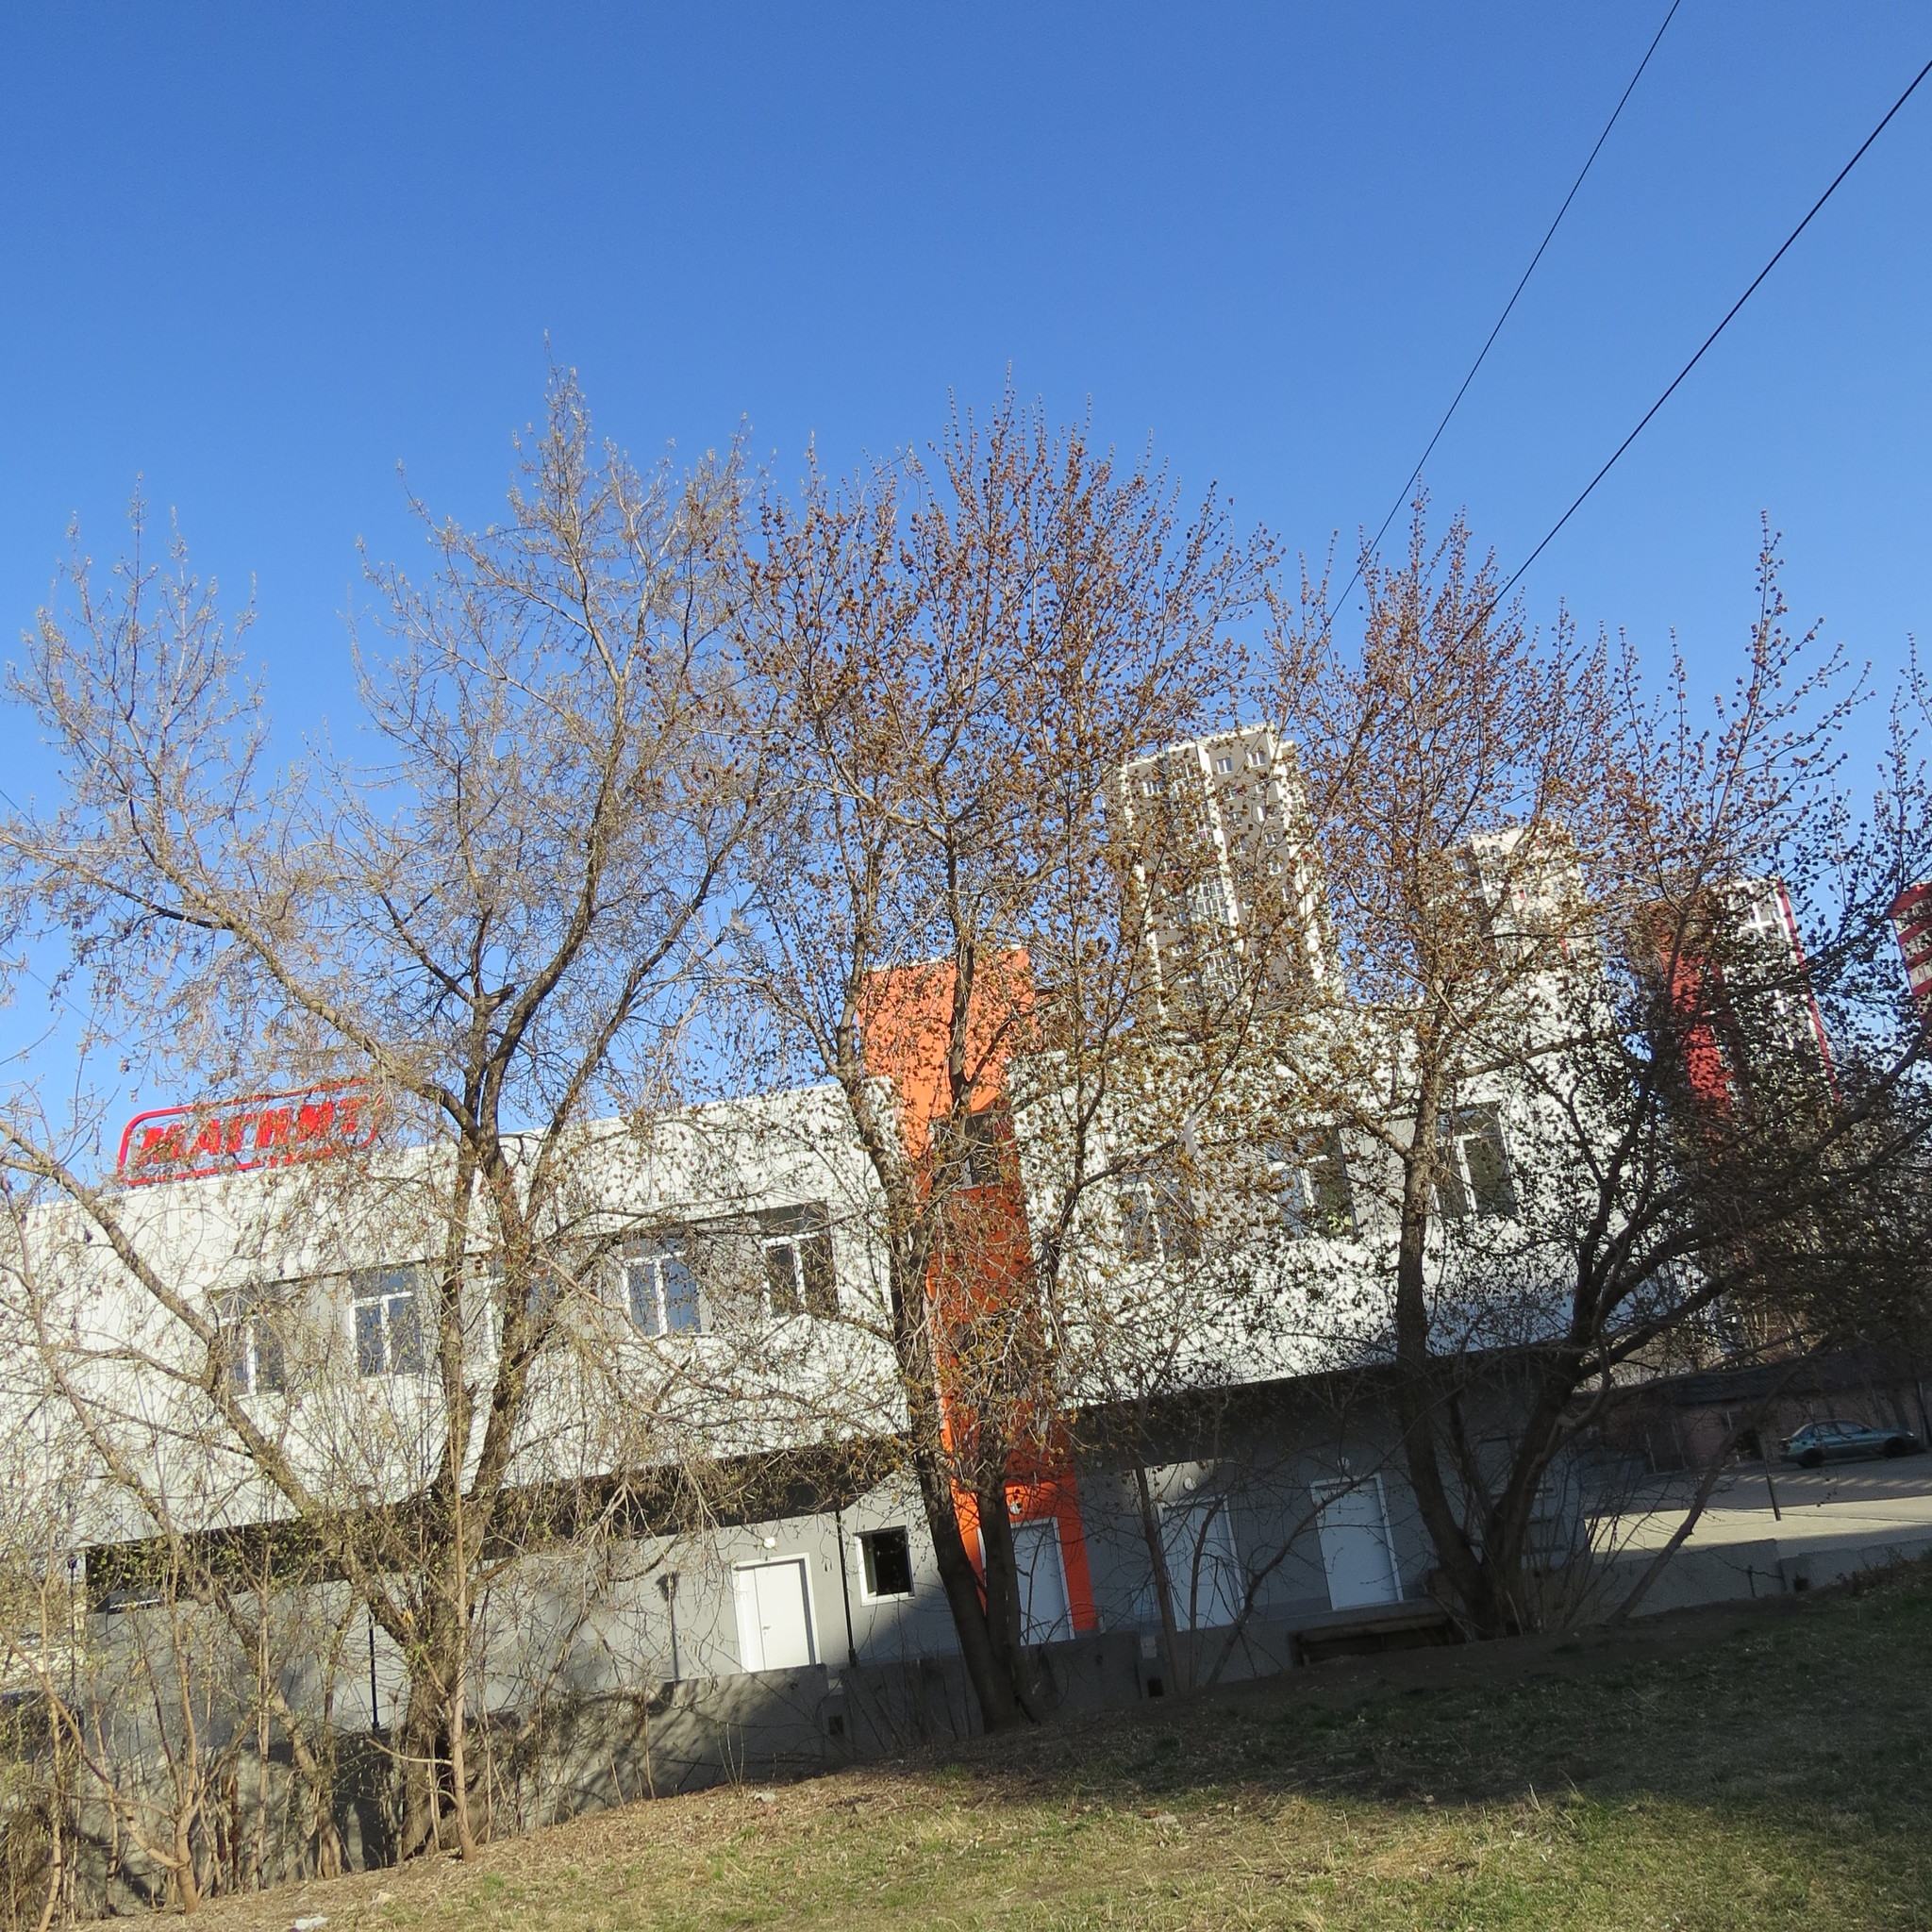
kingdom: Plantae
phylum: Tracheophyta
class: Magnoliopsida
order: Rosales
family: Ulmaceae
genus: Ulmus
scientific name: Ulmus pumila
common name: Siberian elm
